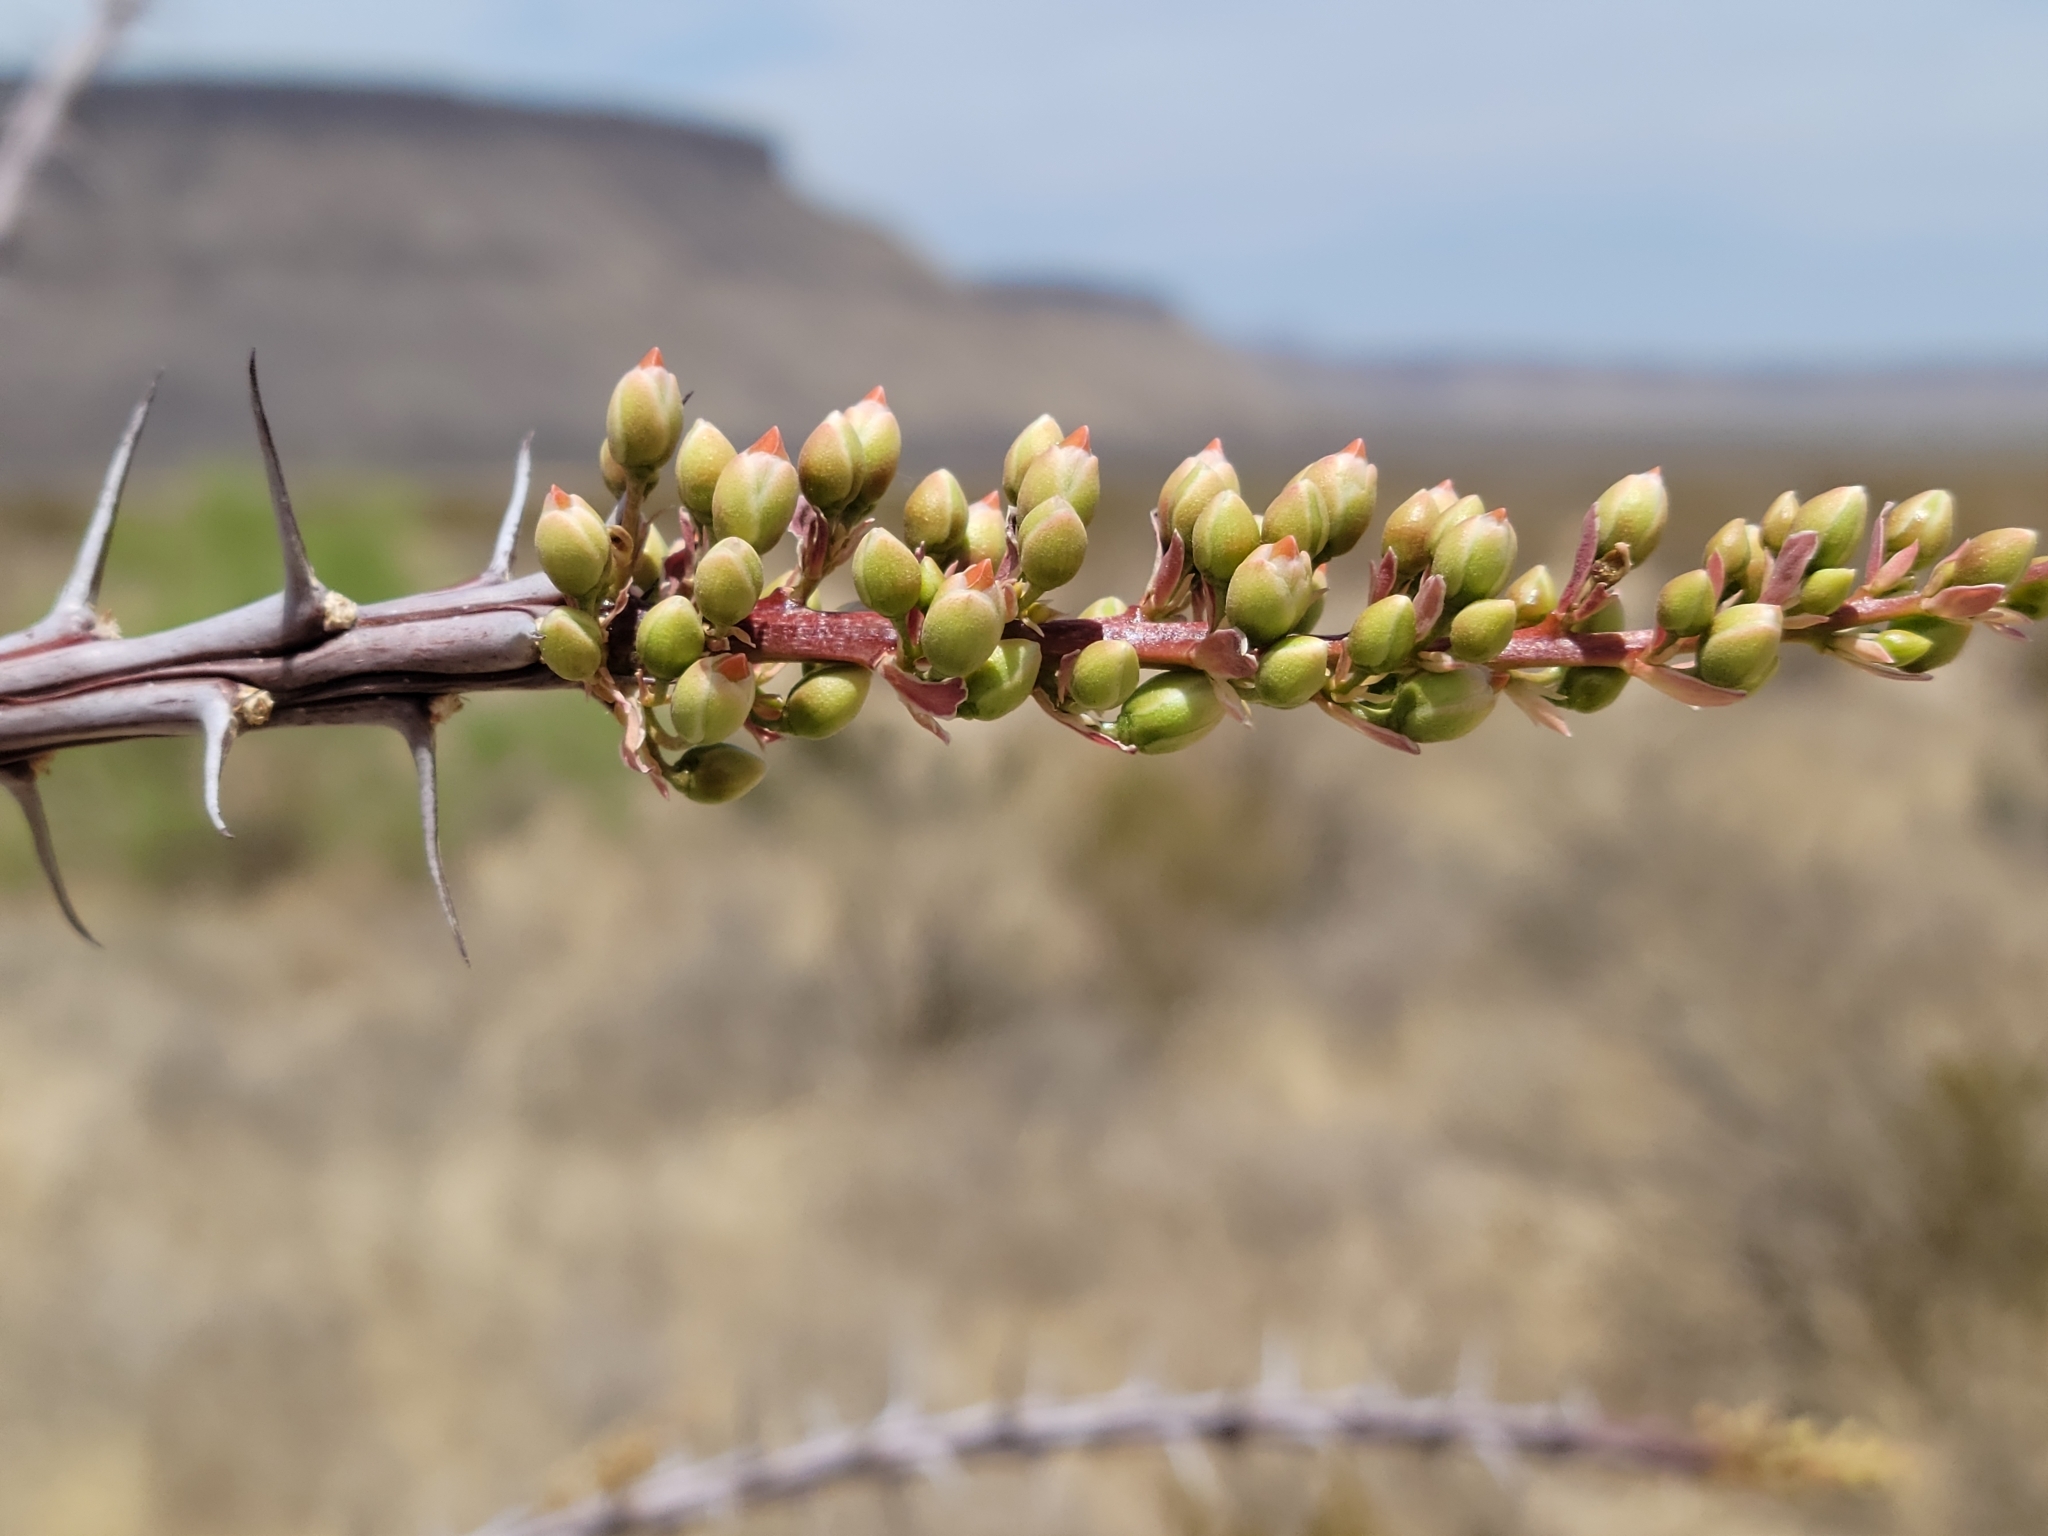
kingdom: Plantae
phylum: Tracheophyta
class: Magnoliopsida
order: Ericales
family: Fouquieriaceae
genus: Fouquieria
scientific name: Fouquieria splendens
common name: Vine-cactus
